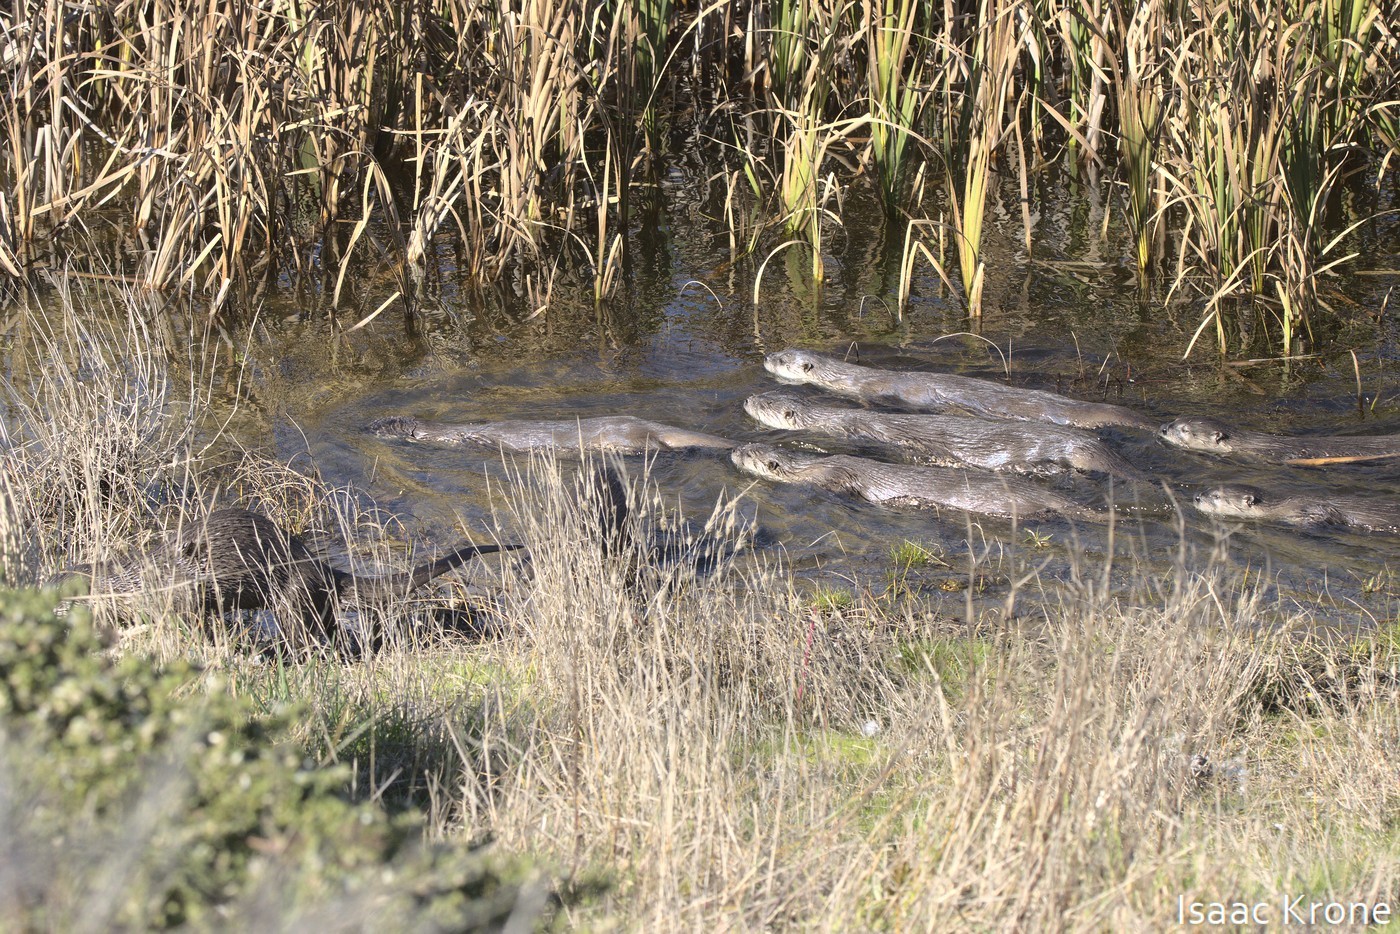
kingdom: Animalia
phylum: Chordata
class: Mammalia
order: Carnivora
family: Mustelidae
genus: Lontra
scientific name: Lontra canadensis
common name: North american river otter
